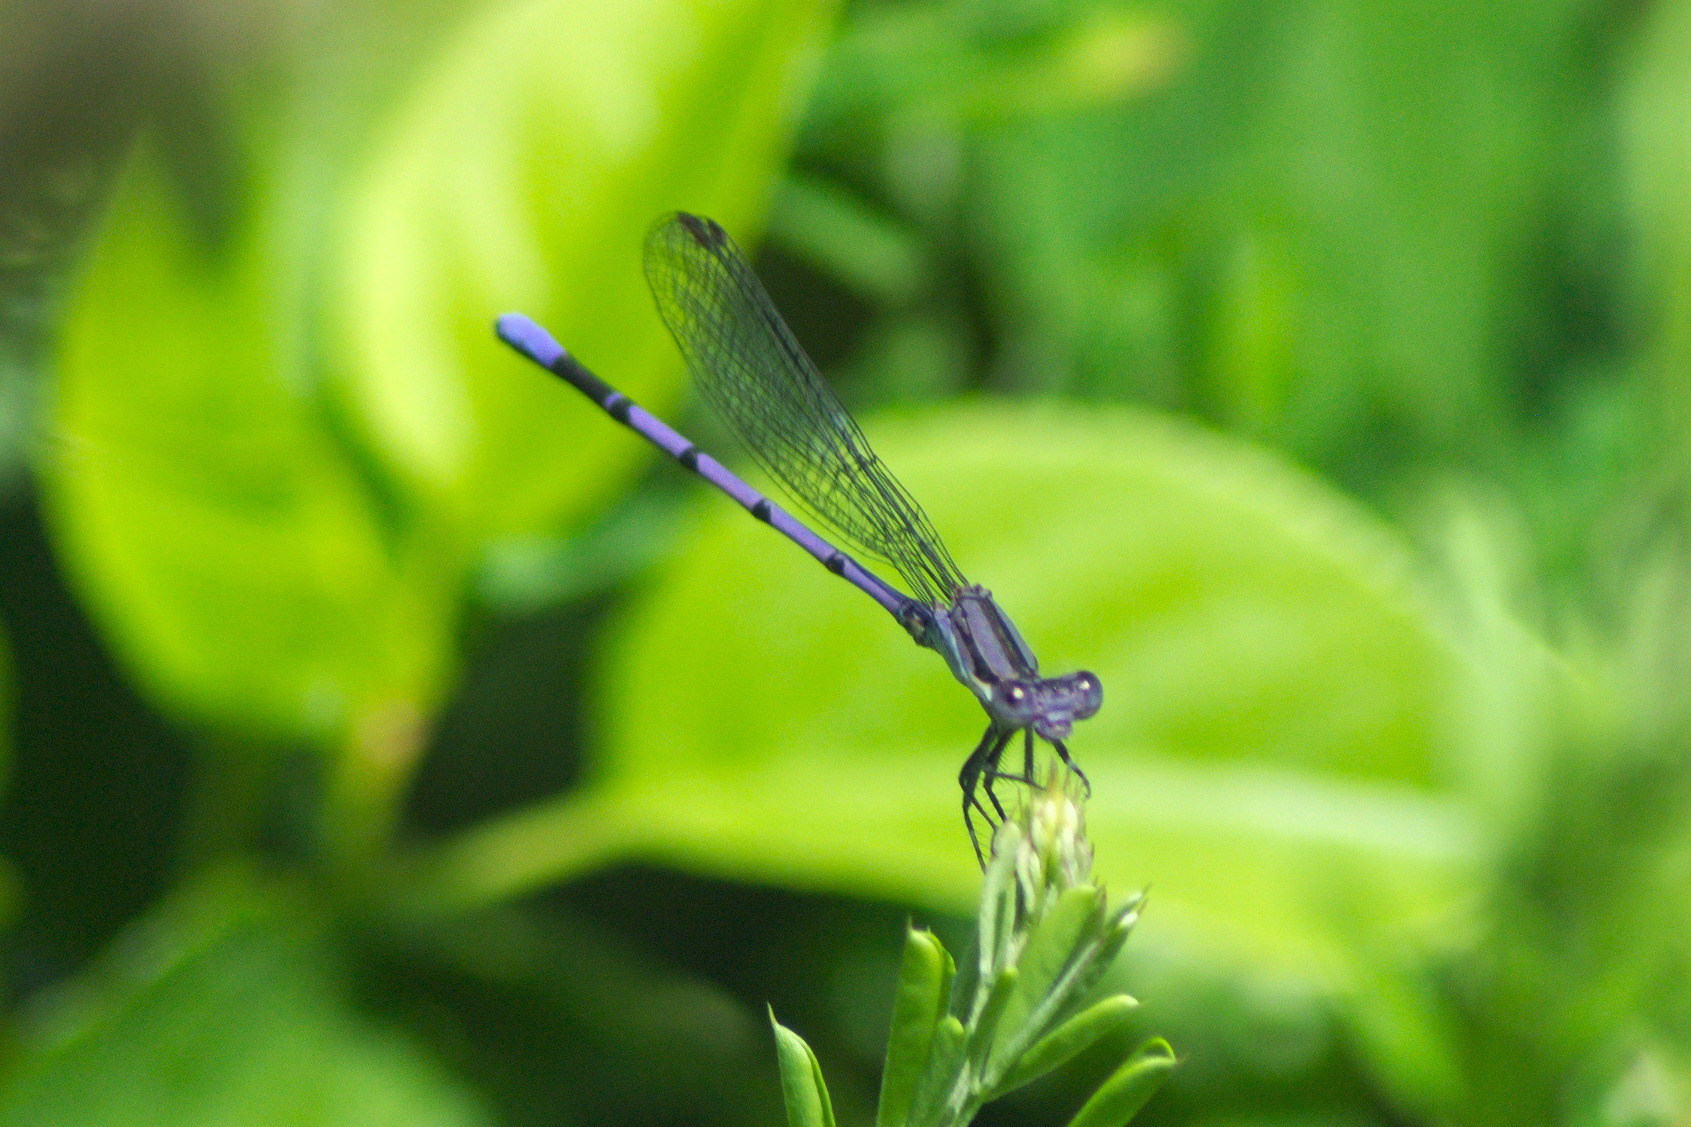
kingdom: Animalia
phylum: Arthropoda
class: Insecta
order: Odonata
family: Coenagrionidae
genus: Argia
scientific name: Argia fumipennis
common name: Variable dancer
